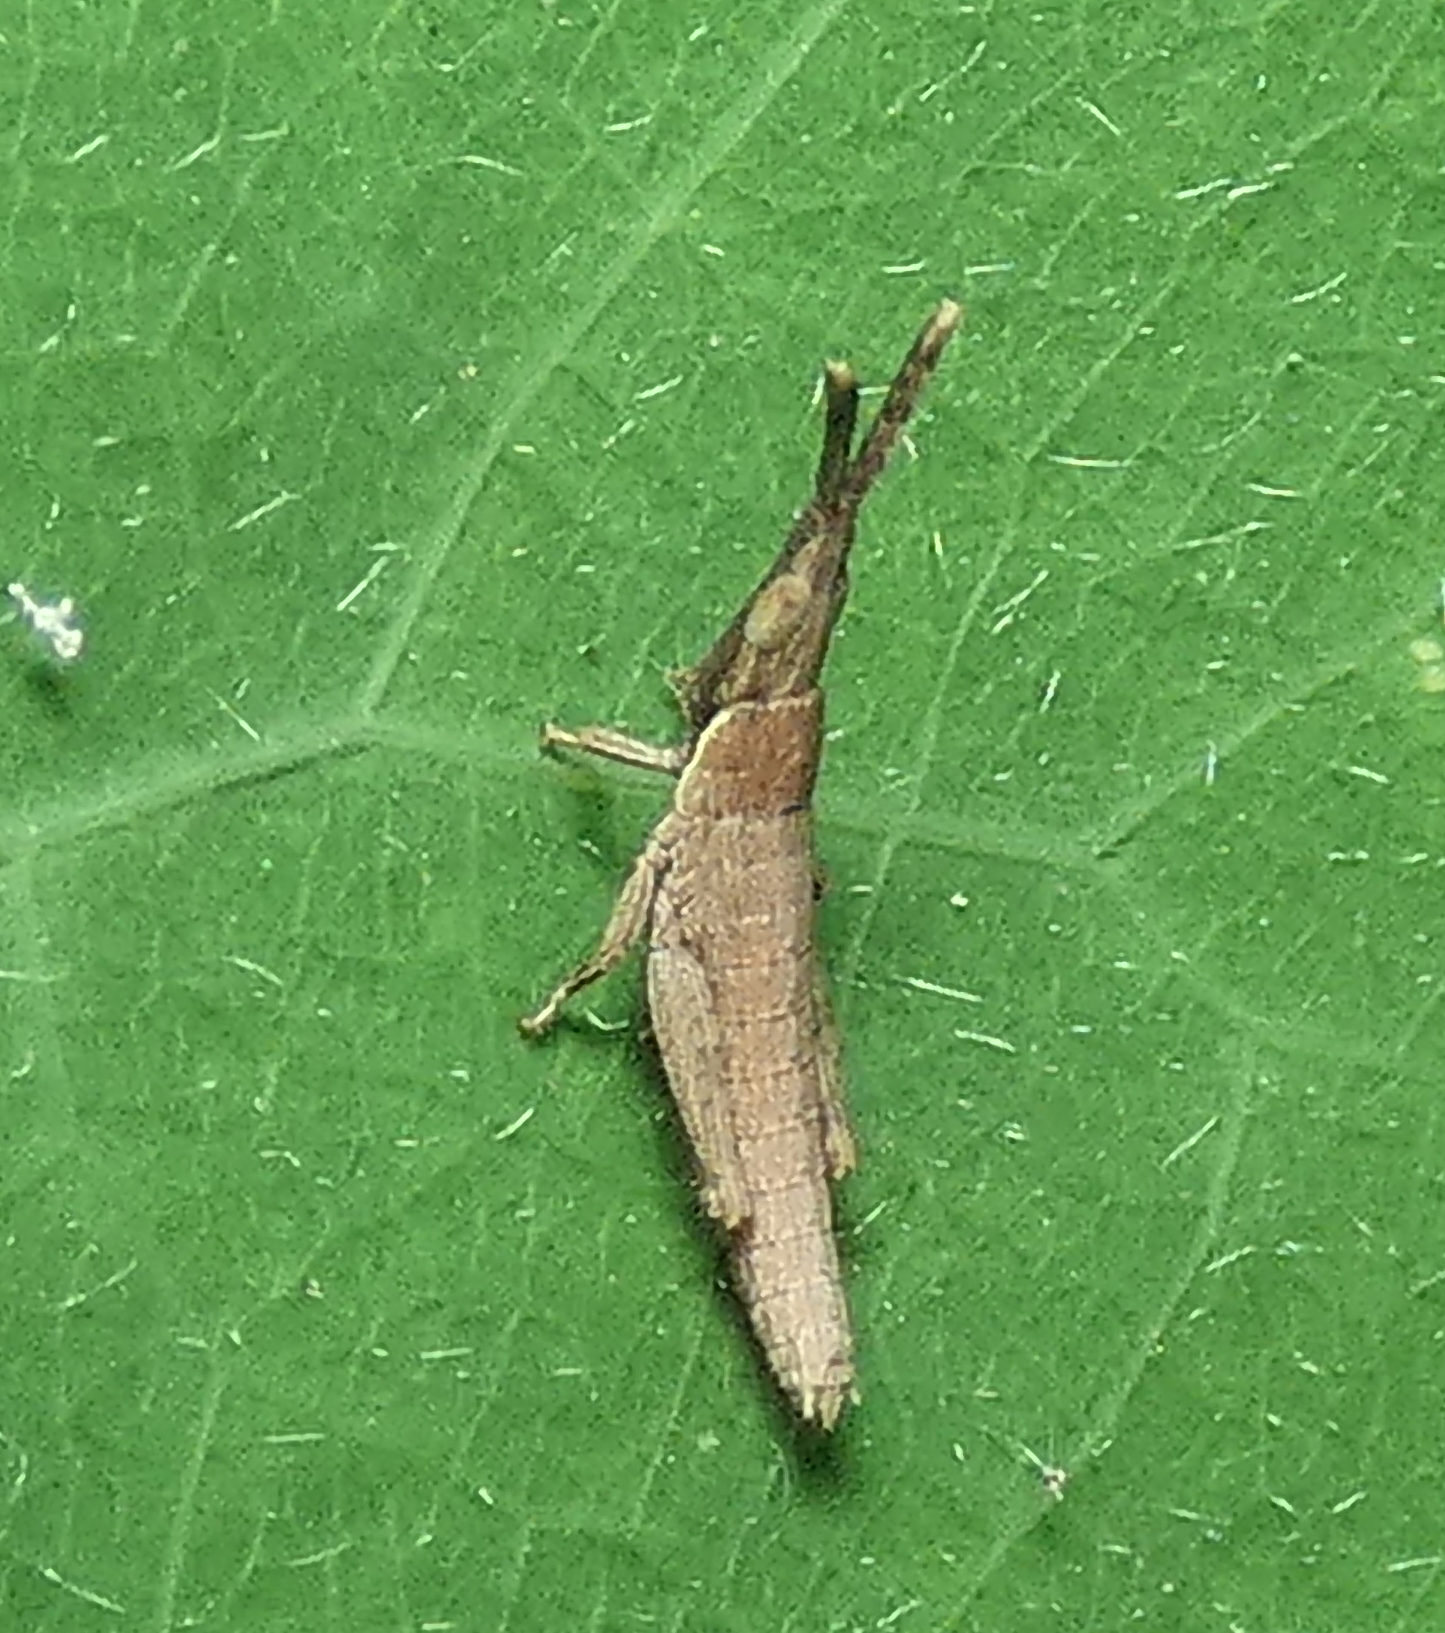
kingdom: Animalia
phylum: Arthropoda
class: Insecta
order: Orthoptera
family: Pyrgomorphidae
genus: Algete
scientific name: Algete brunneri
